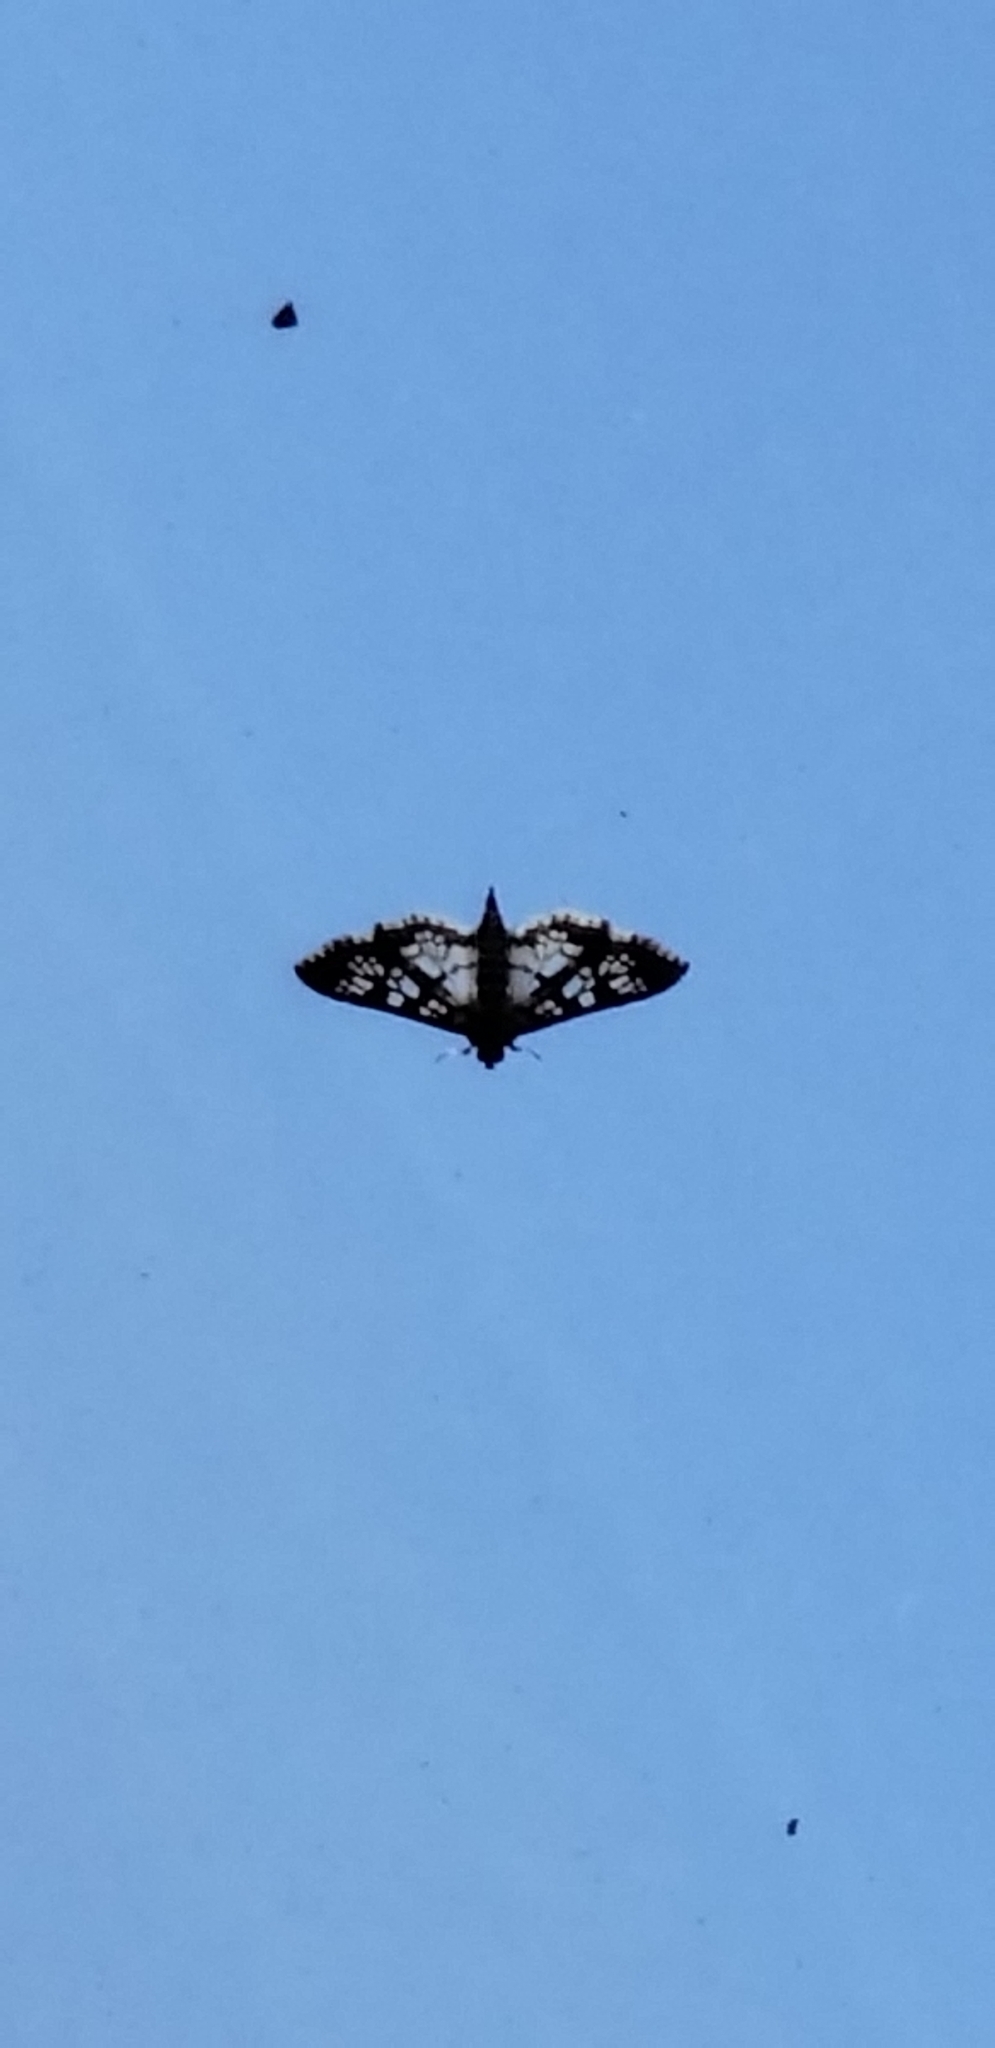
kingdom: Animalia
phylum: Arthropoda
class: Insecta
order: Lepidoptera
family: Crambidae
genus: Epipagis
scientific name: Epipagis forsythae
